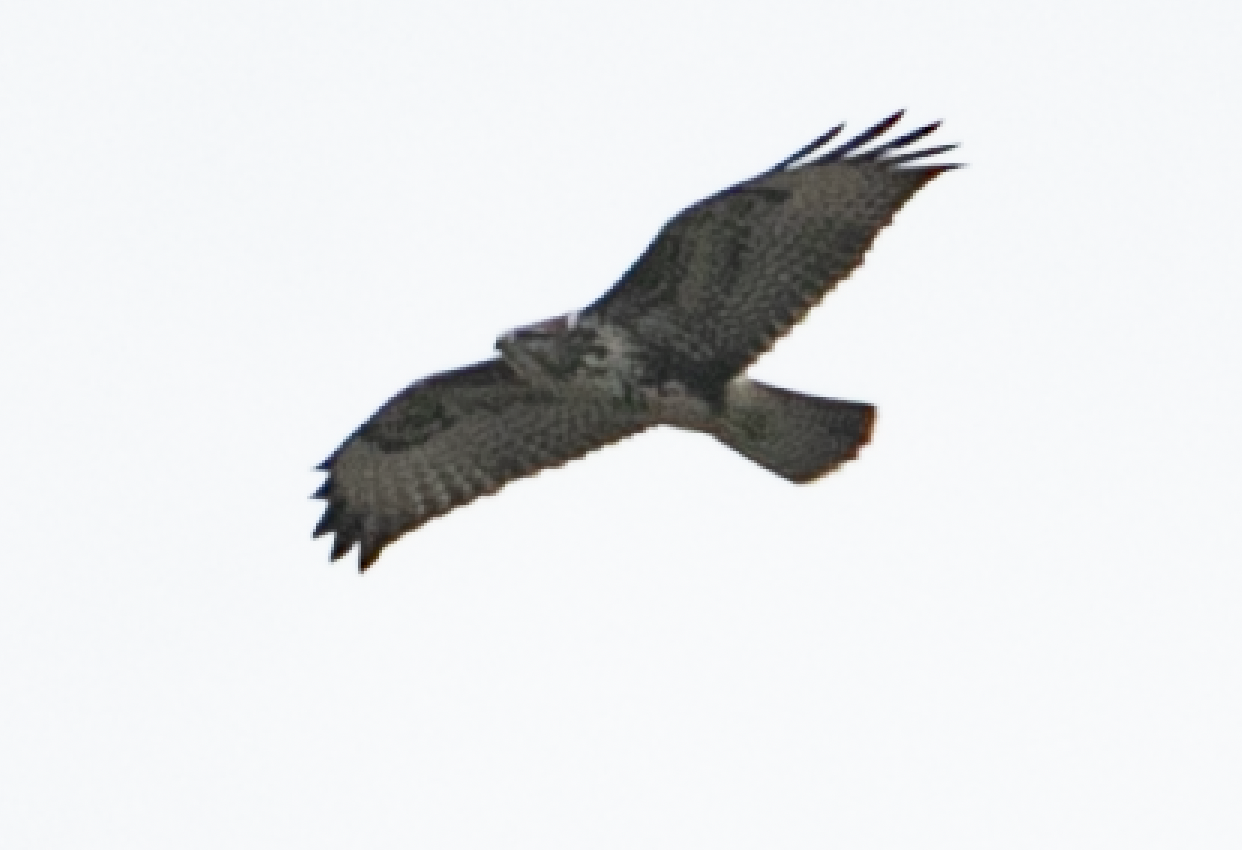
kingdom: Animalia
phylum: Chordata
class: Aves
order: Accipitriformes
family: Accipitridae
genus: Buteo
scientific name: Buteo buteo
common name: Common buzzard
